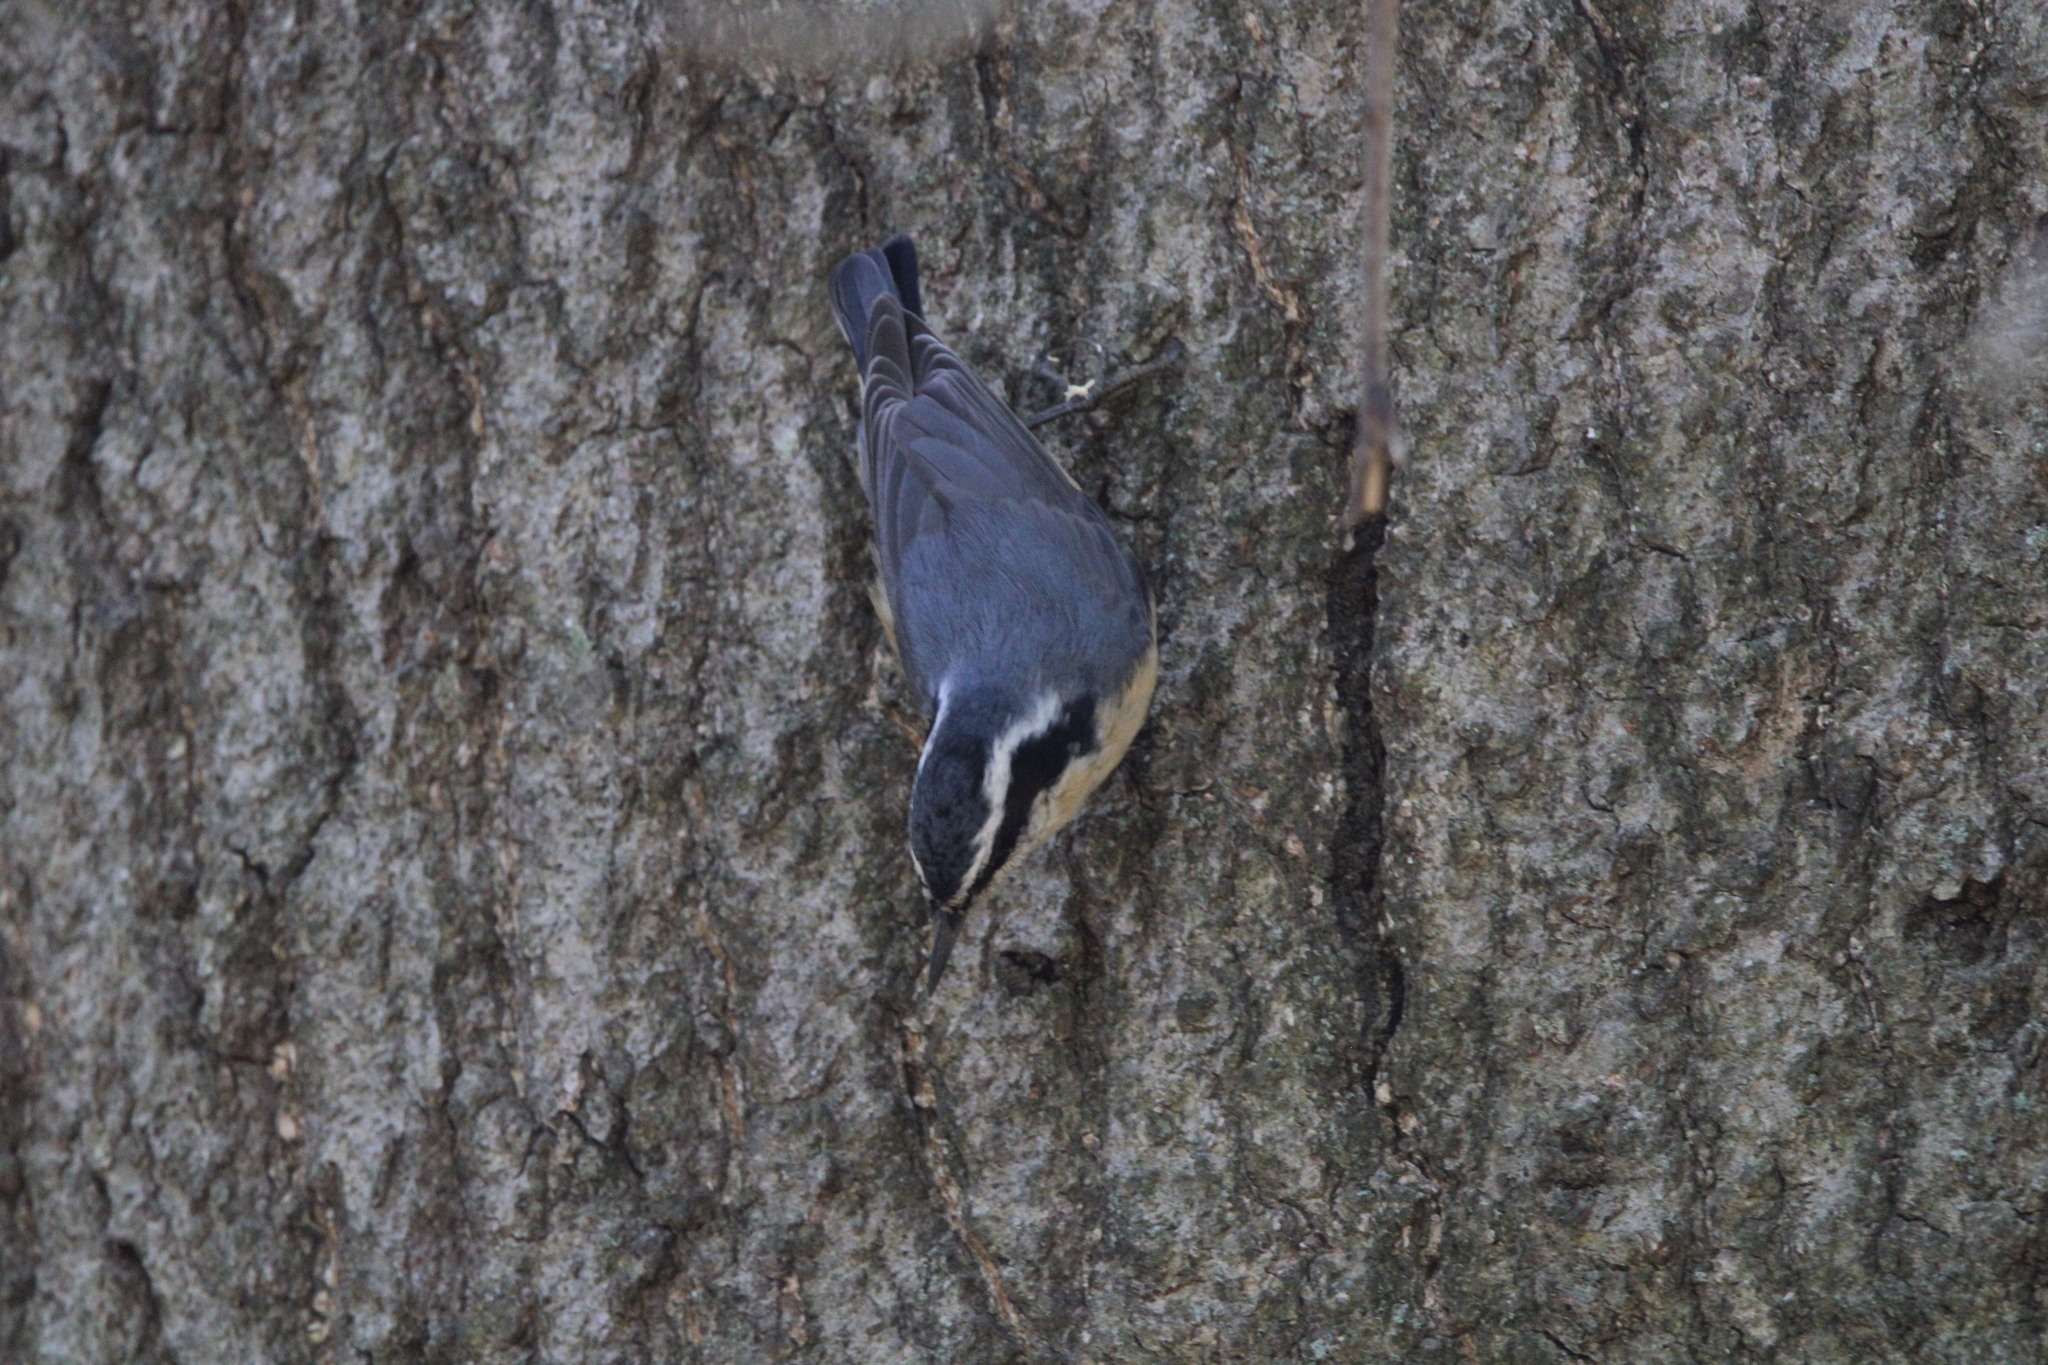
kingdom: Animalia
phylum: Chordata
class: Aves
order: Passeriformes
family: Sittidae
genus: Sitta
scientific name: Sitta canadensis
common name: Red-breasted nuthatch
